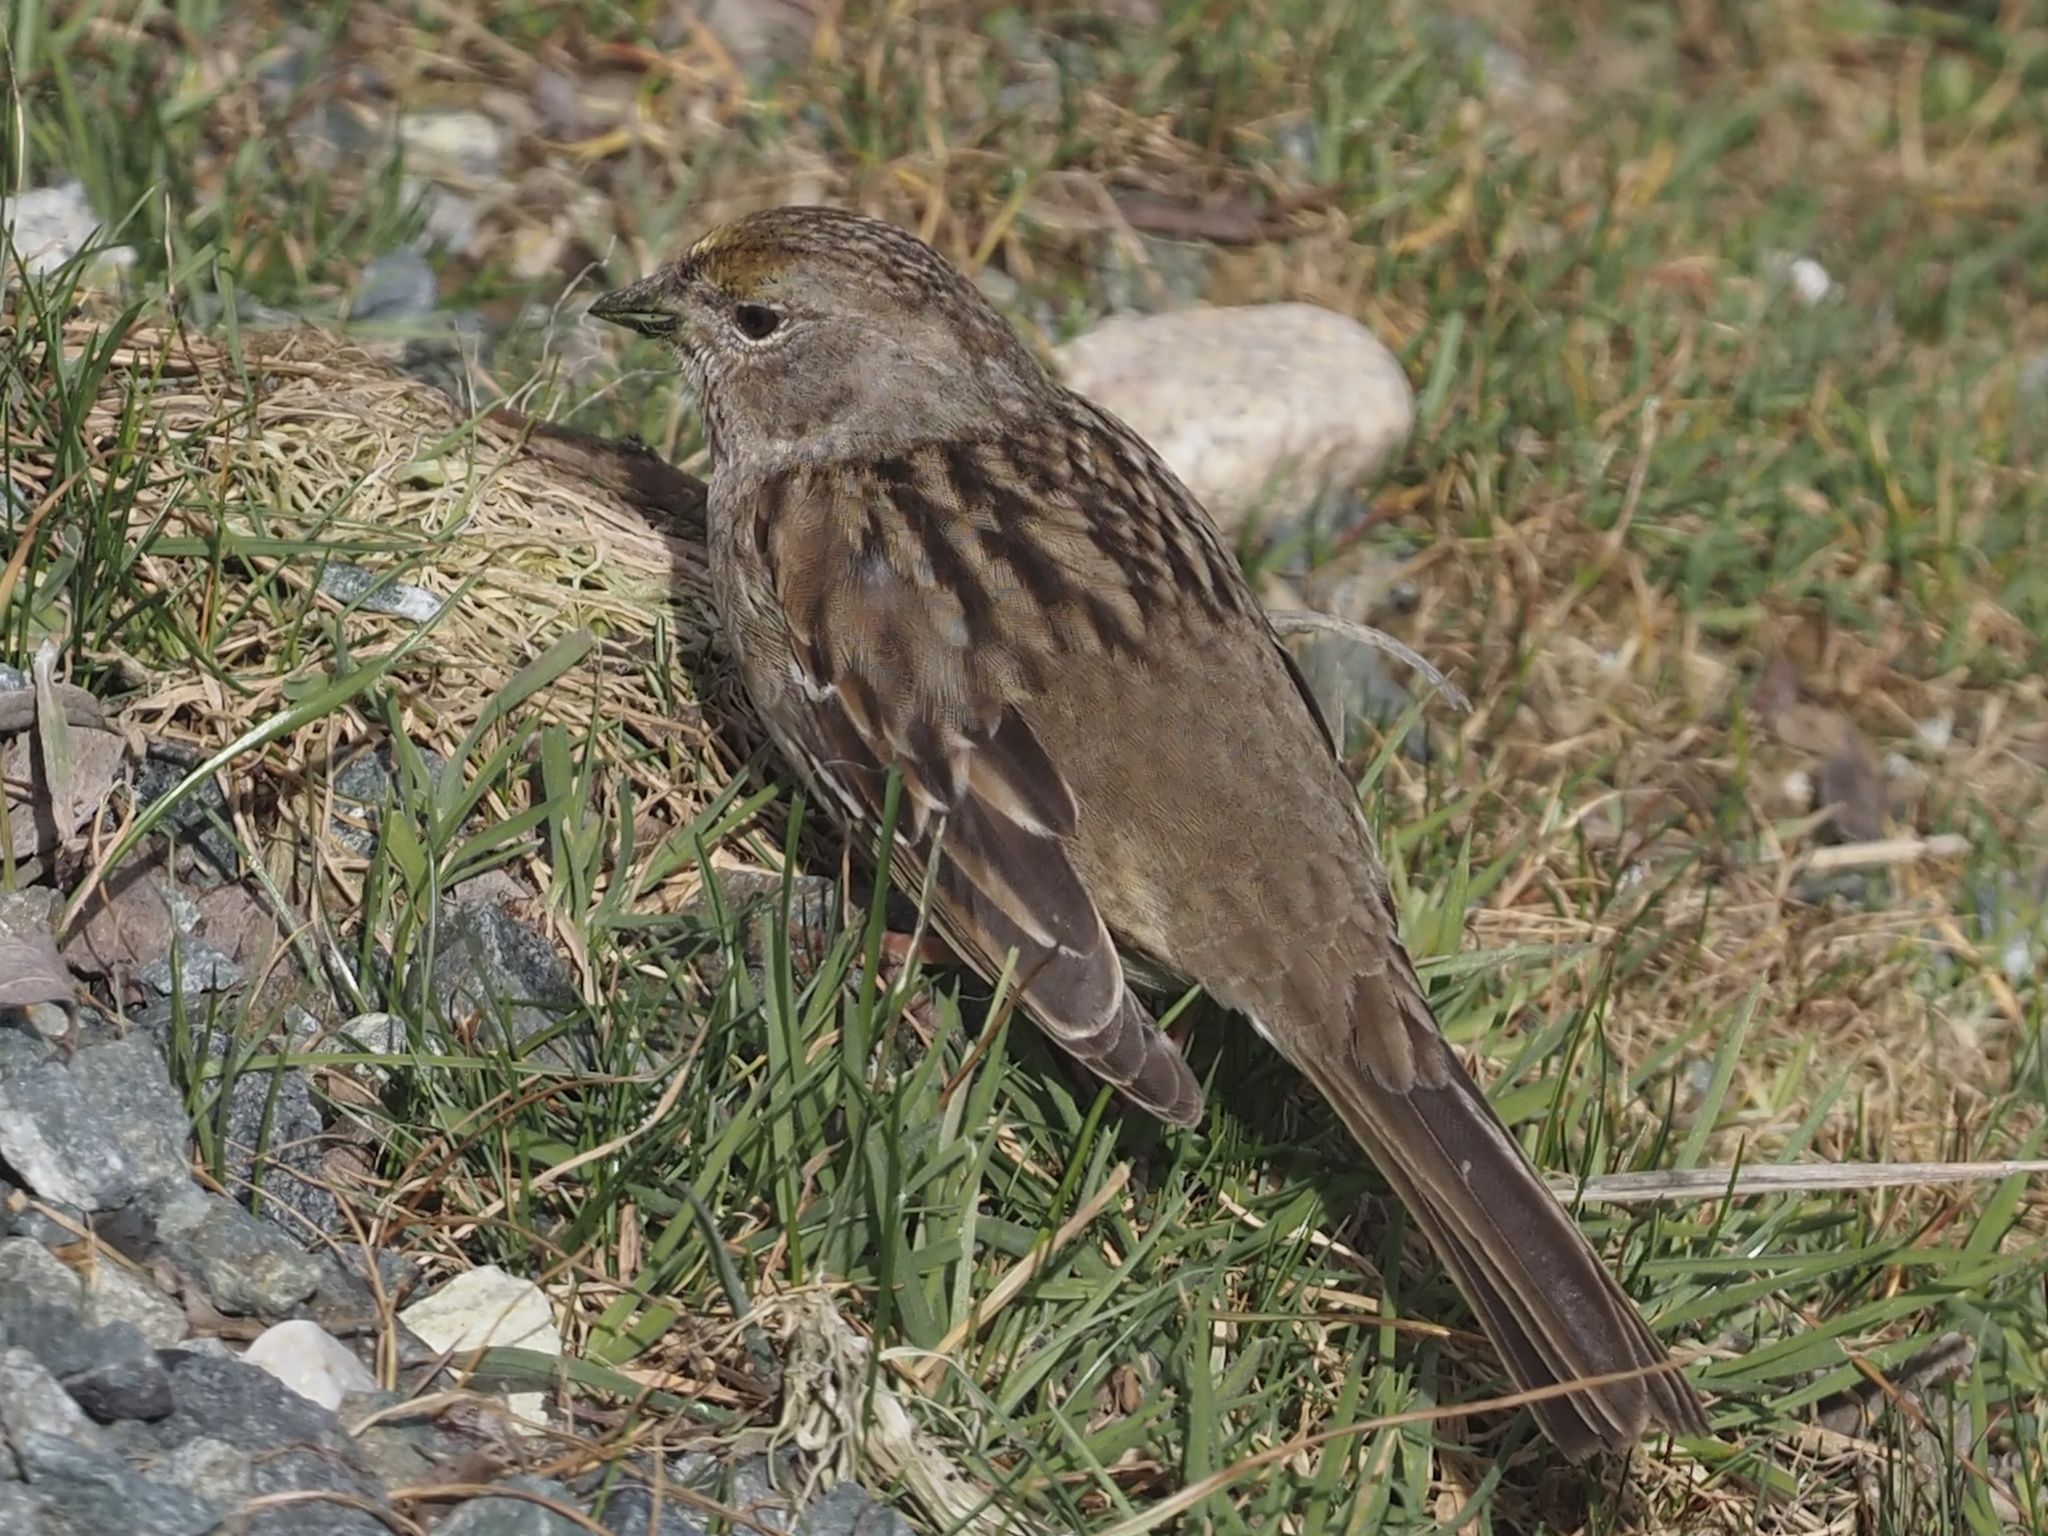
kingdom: Animalia
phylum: Chordata
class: Aves
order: Passeriformes
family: Passerellidae
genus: Zonotrichia
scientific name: Zonotrichia atricapilla
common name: Golden-crowned sparrow
